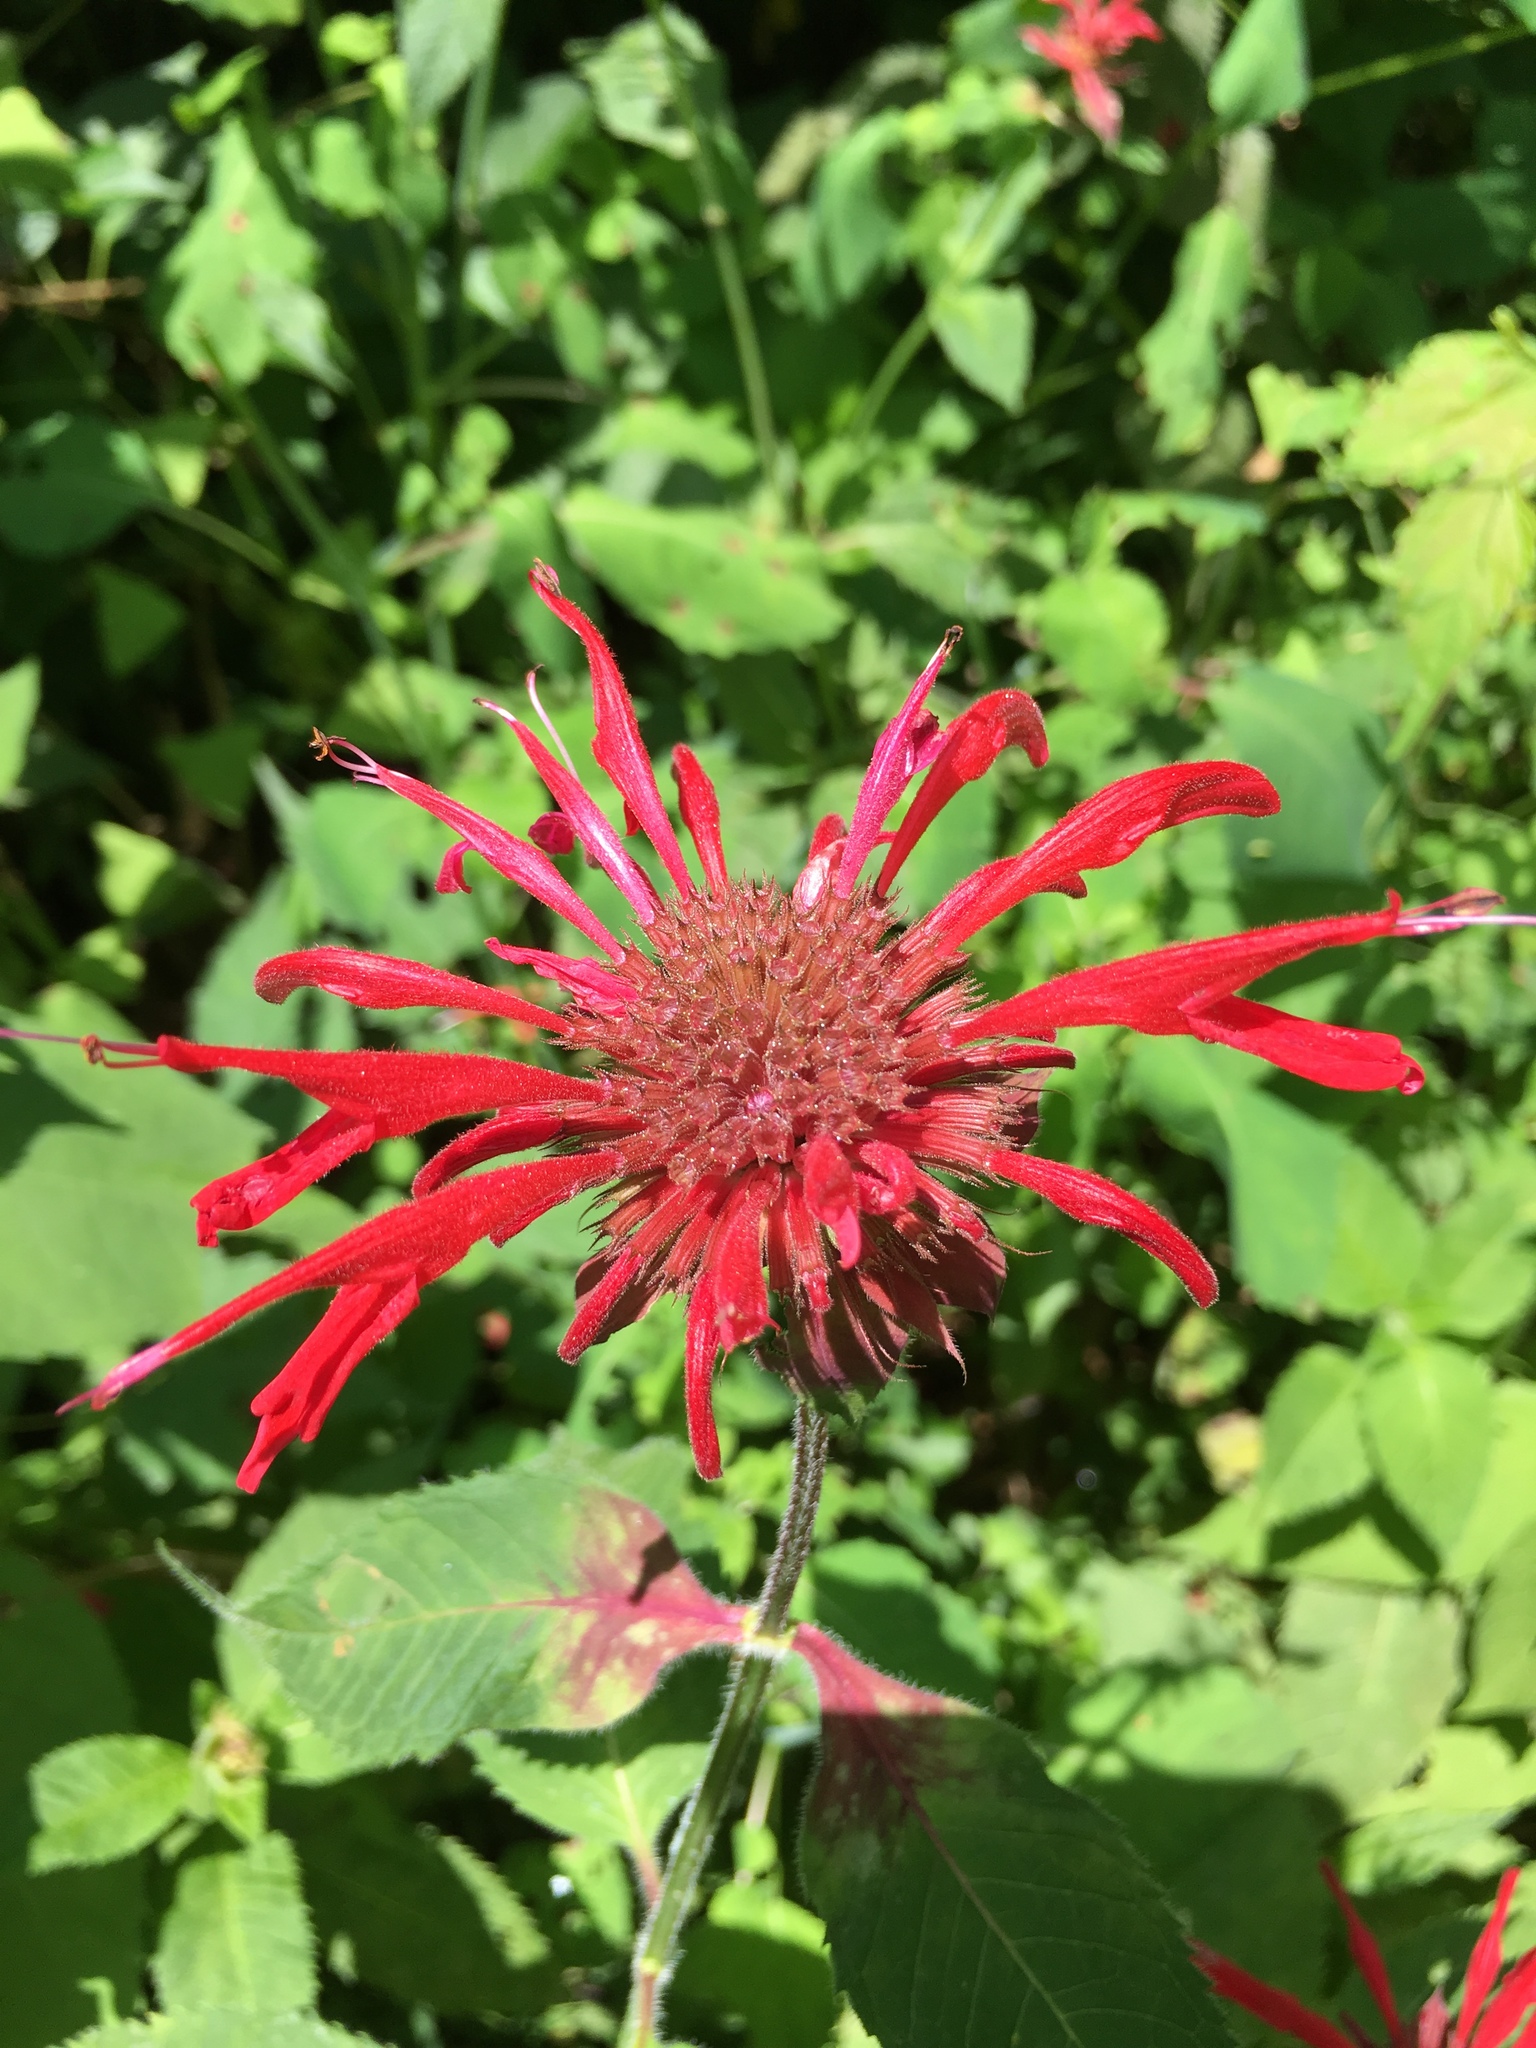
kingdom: Plantae
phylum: Tracheophyta
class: Magnoliopsida
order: Lamiales
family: Lamiaceae
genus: Monarda
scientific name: Monarda didyma
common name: Beebalm
